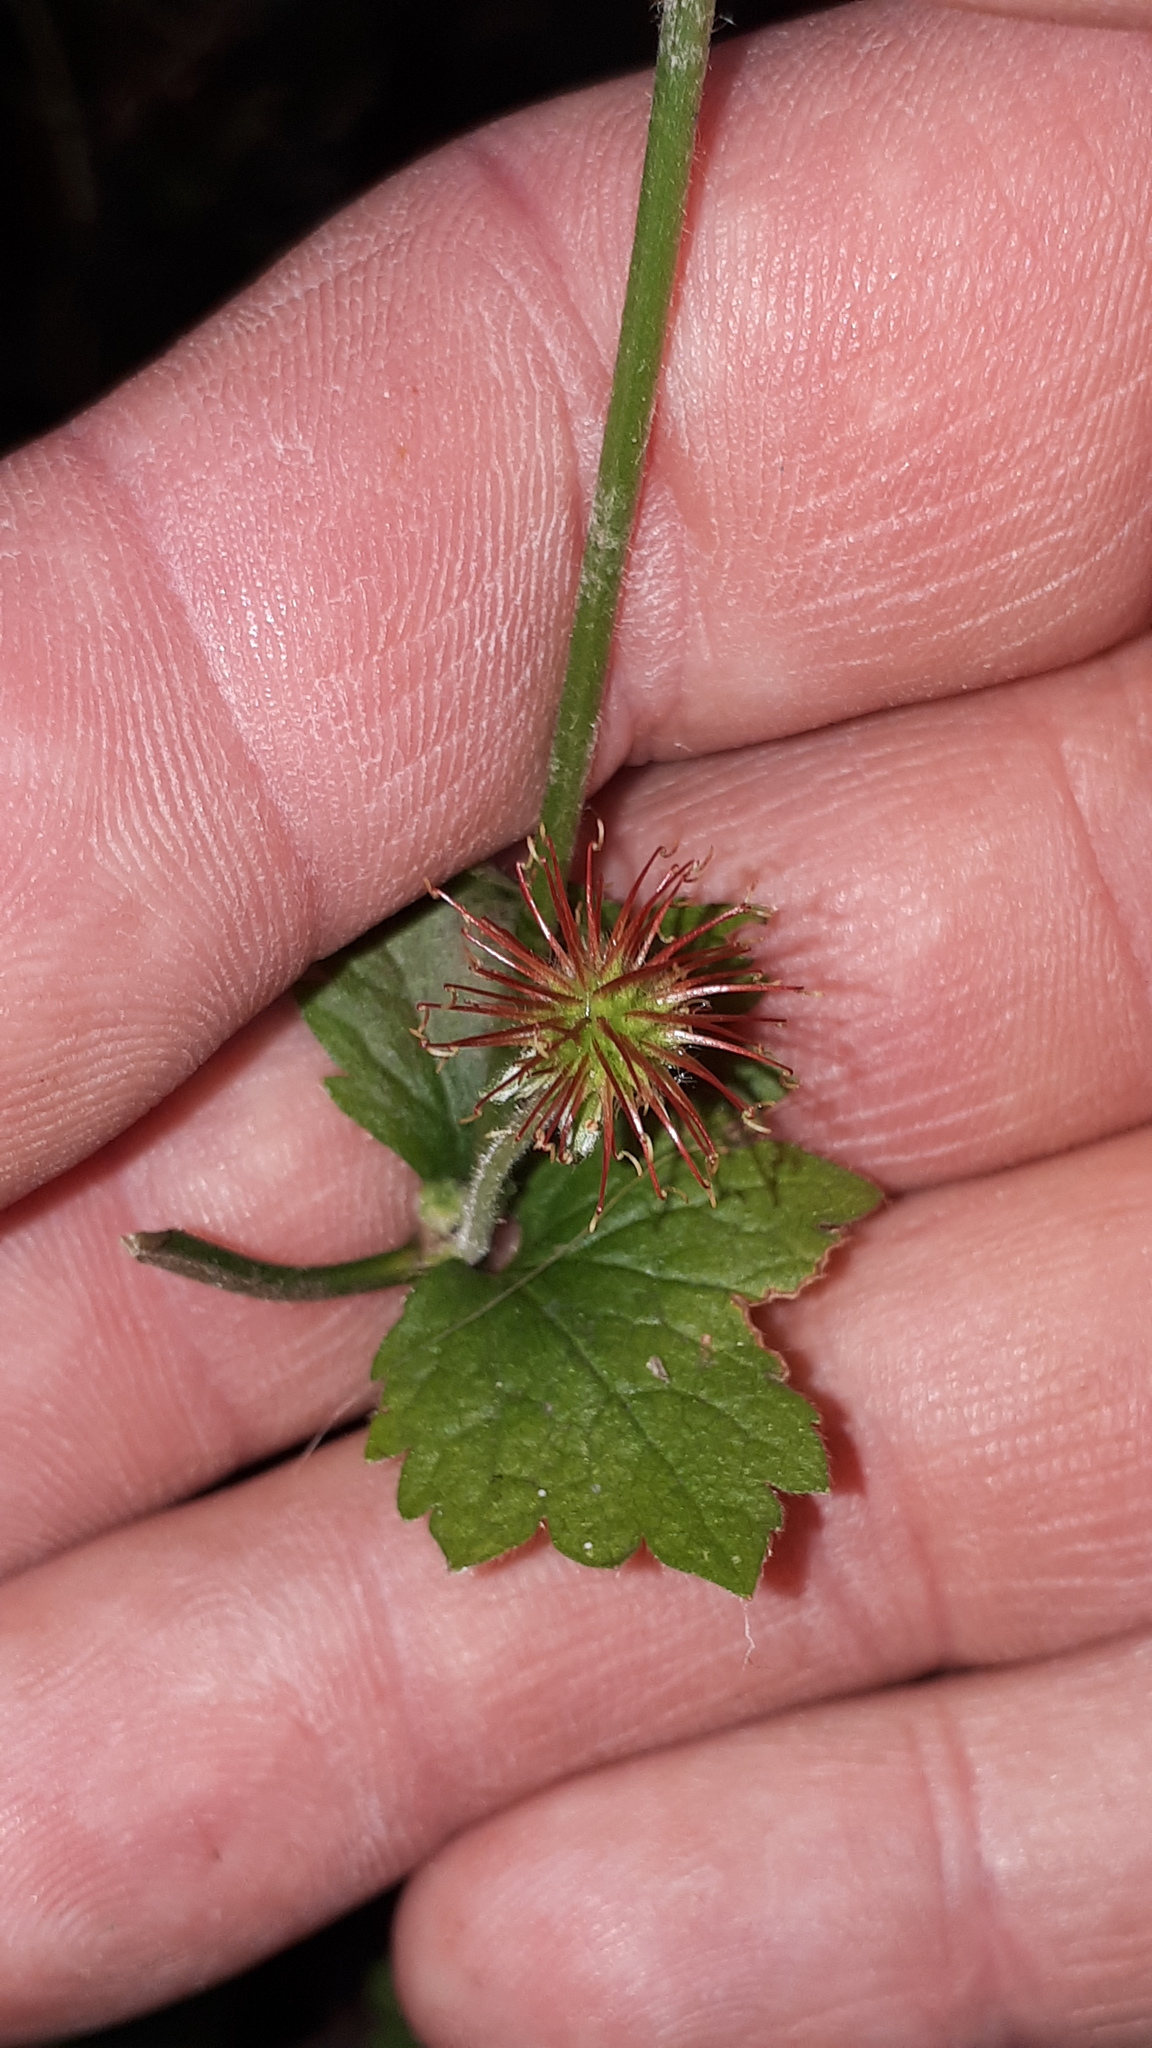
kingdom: Plantae
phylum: Tracheophyta
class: Magnoliopsida
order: Rosales
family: Rosaceae
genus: Geum
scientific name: Geum urbanum
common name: Wood avens
